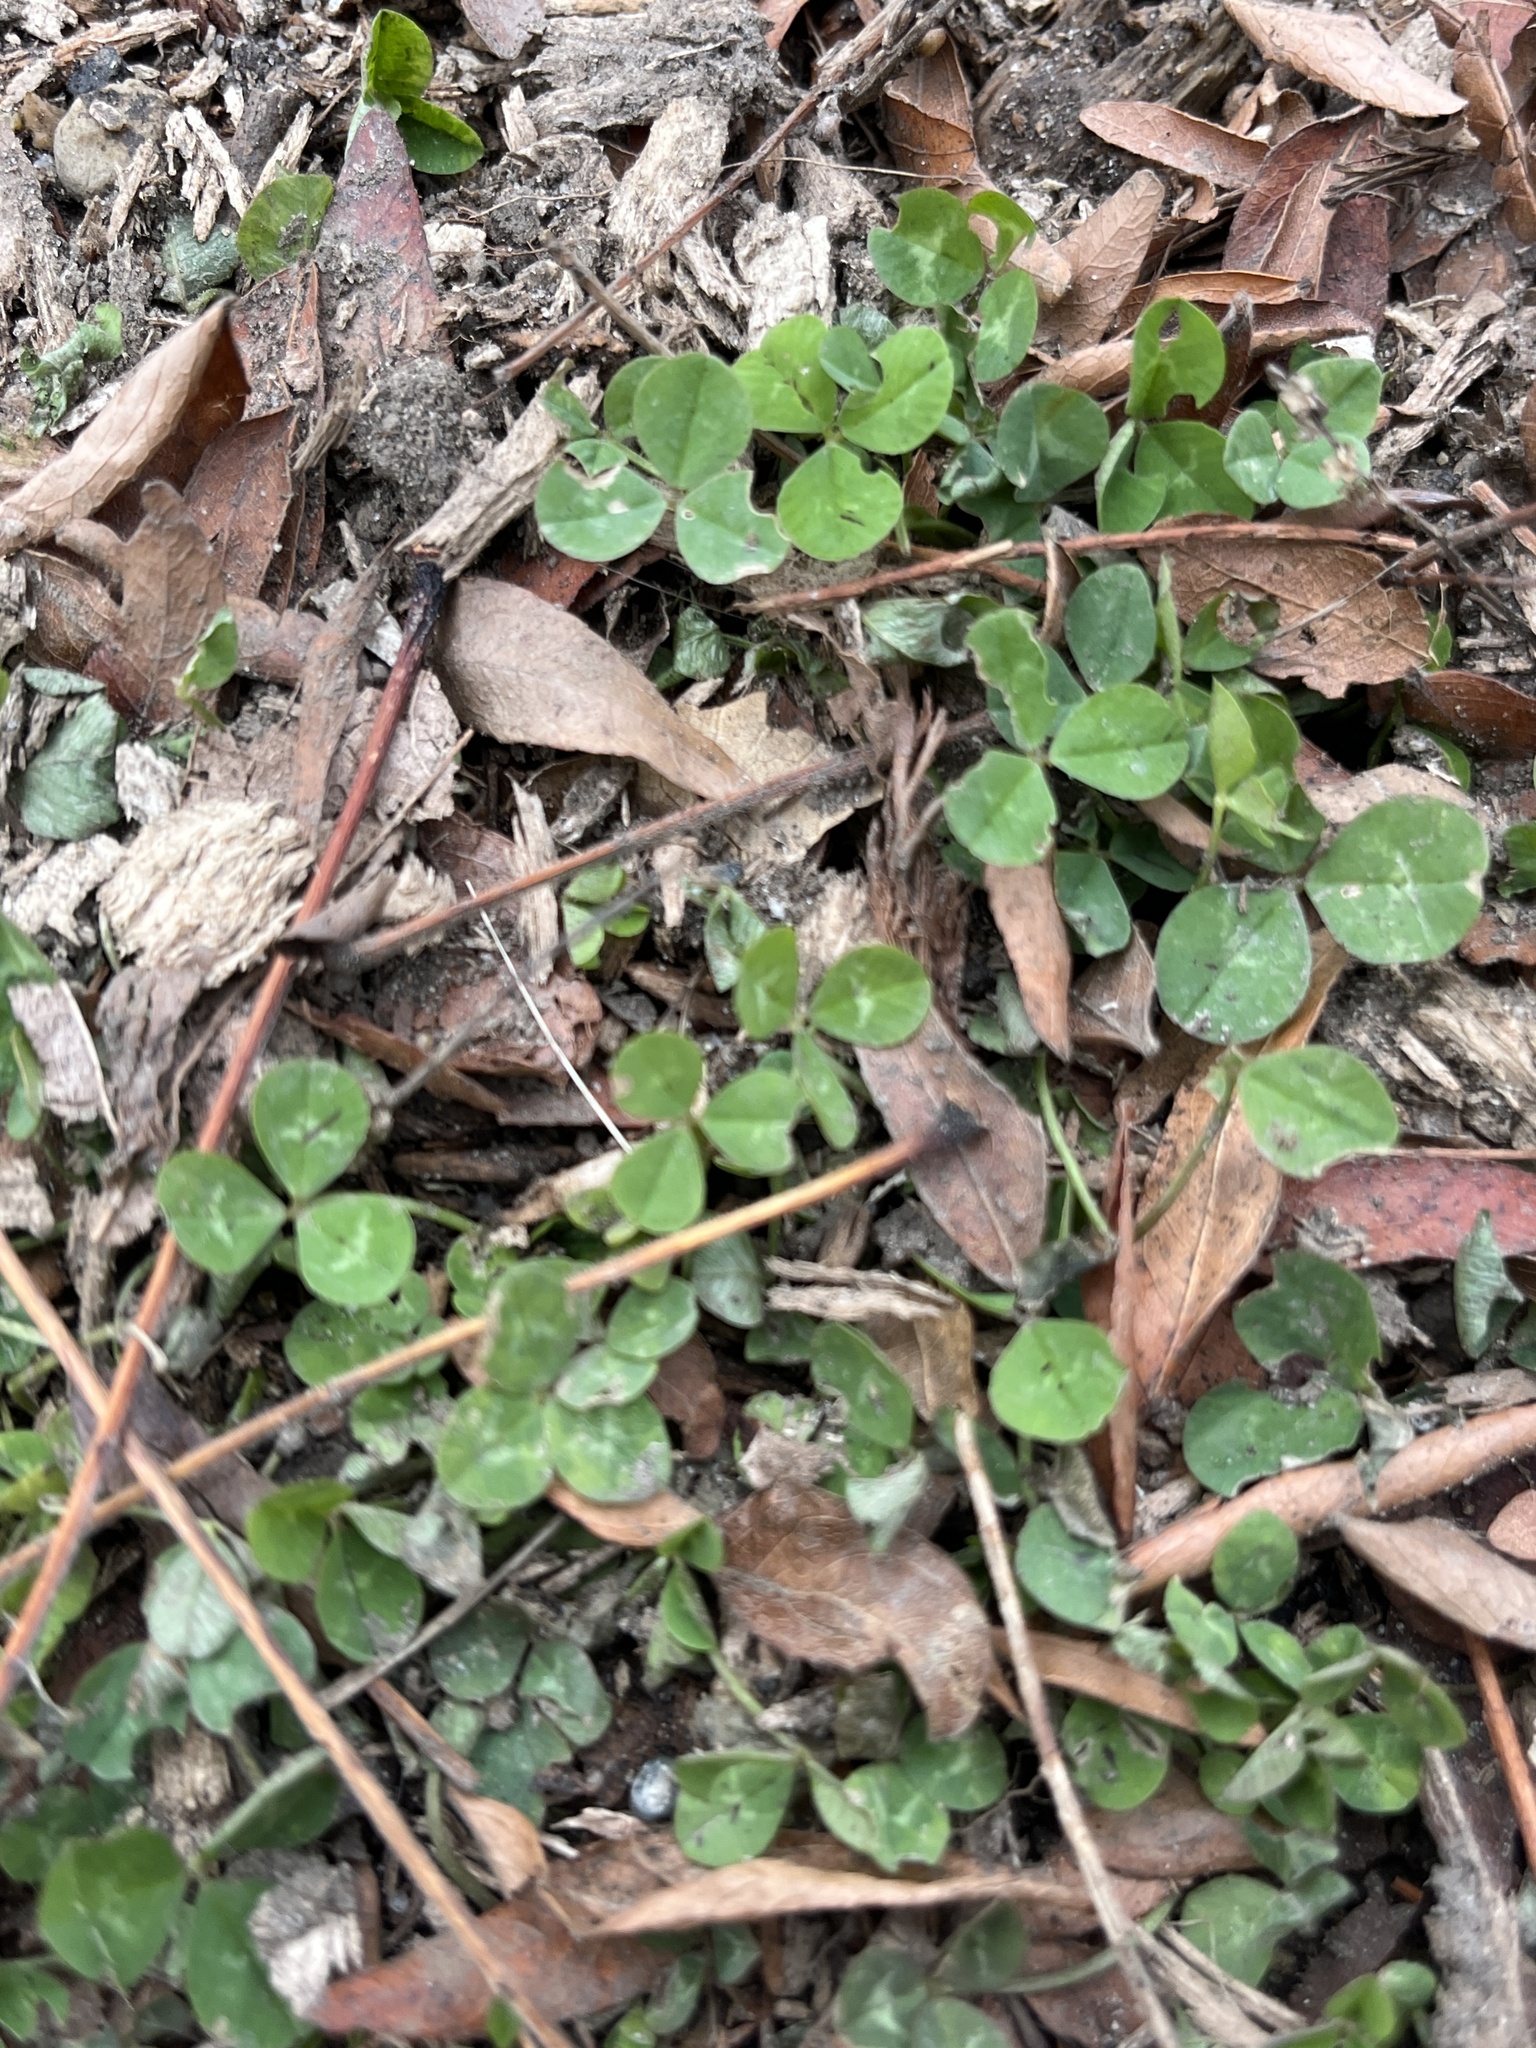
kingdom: Plantae
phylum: Tracheophyta
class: Magnoliopsida
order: Fabales
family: Fabaceae
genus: Trifolium
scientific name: Trifolium repens
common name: White clover
